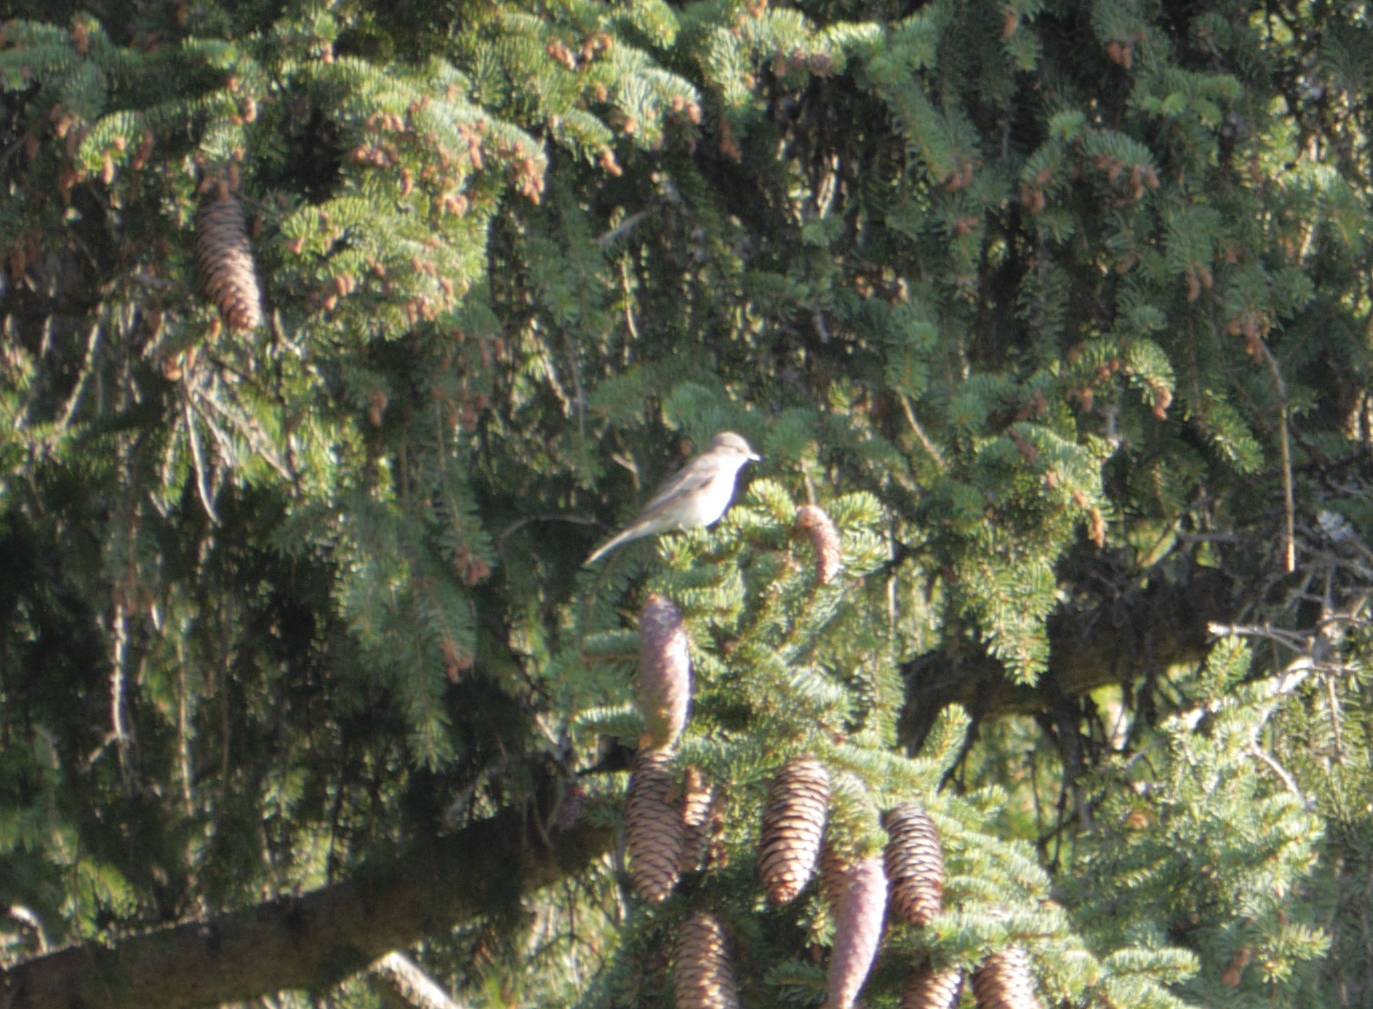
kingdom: Animalia
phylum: Chordata
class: Aves
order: Passeriformes
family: Muscicapidae
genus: Muscicapa
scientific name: Muscicapa striata
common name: Spotted flycatcher
